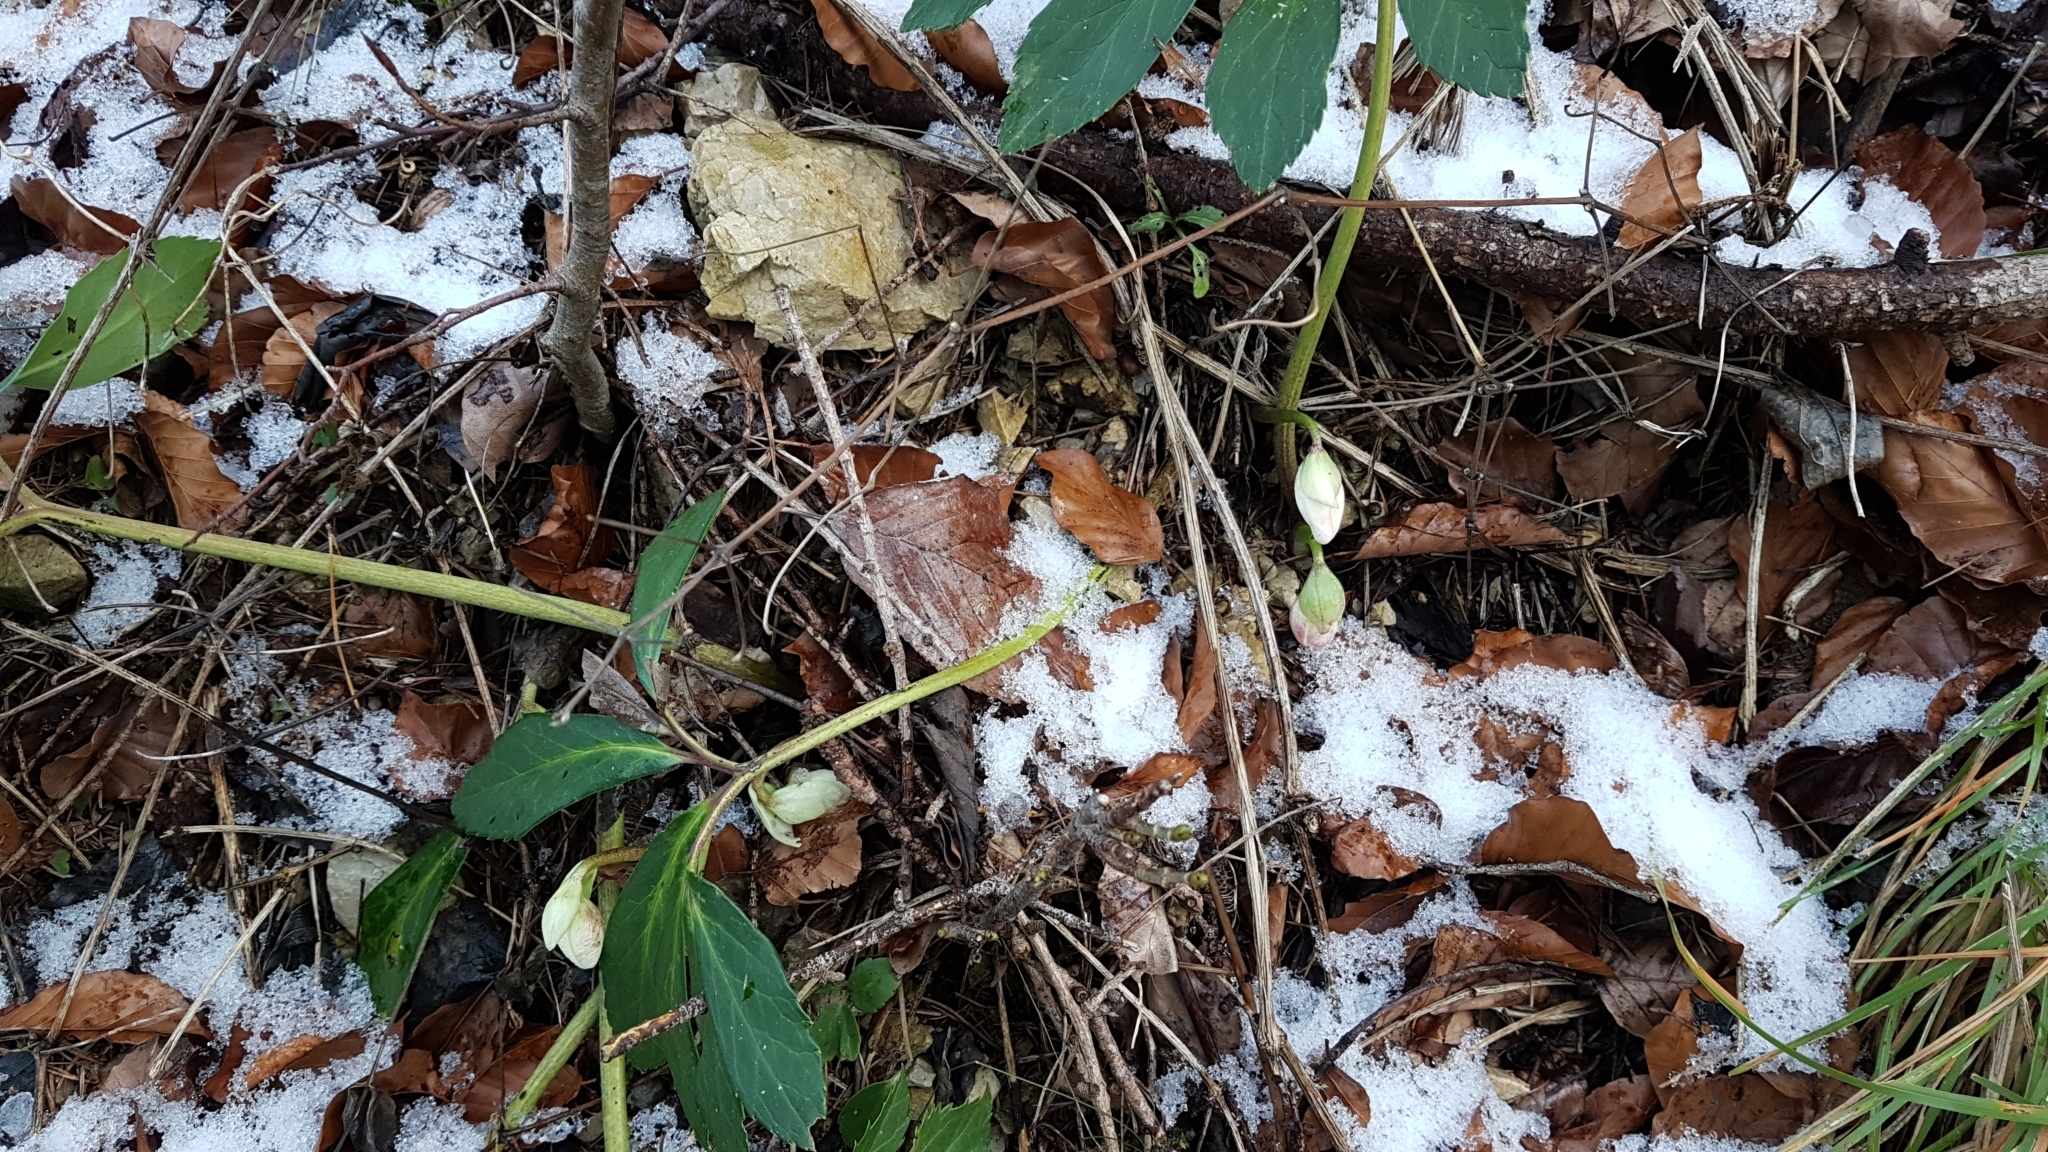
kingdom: Plantae
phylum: Tracheophyta
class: Magnoliopsida
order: Ranunculales
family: Ranunculaceae
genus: Helleborus
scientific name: Helleborus niger
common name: Black hellebore
